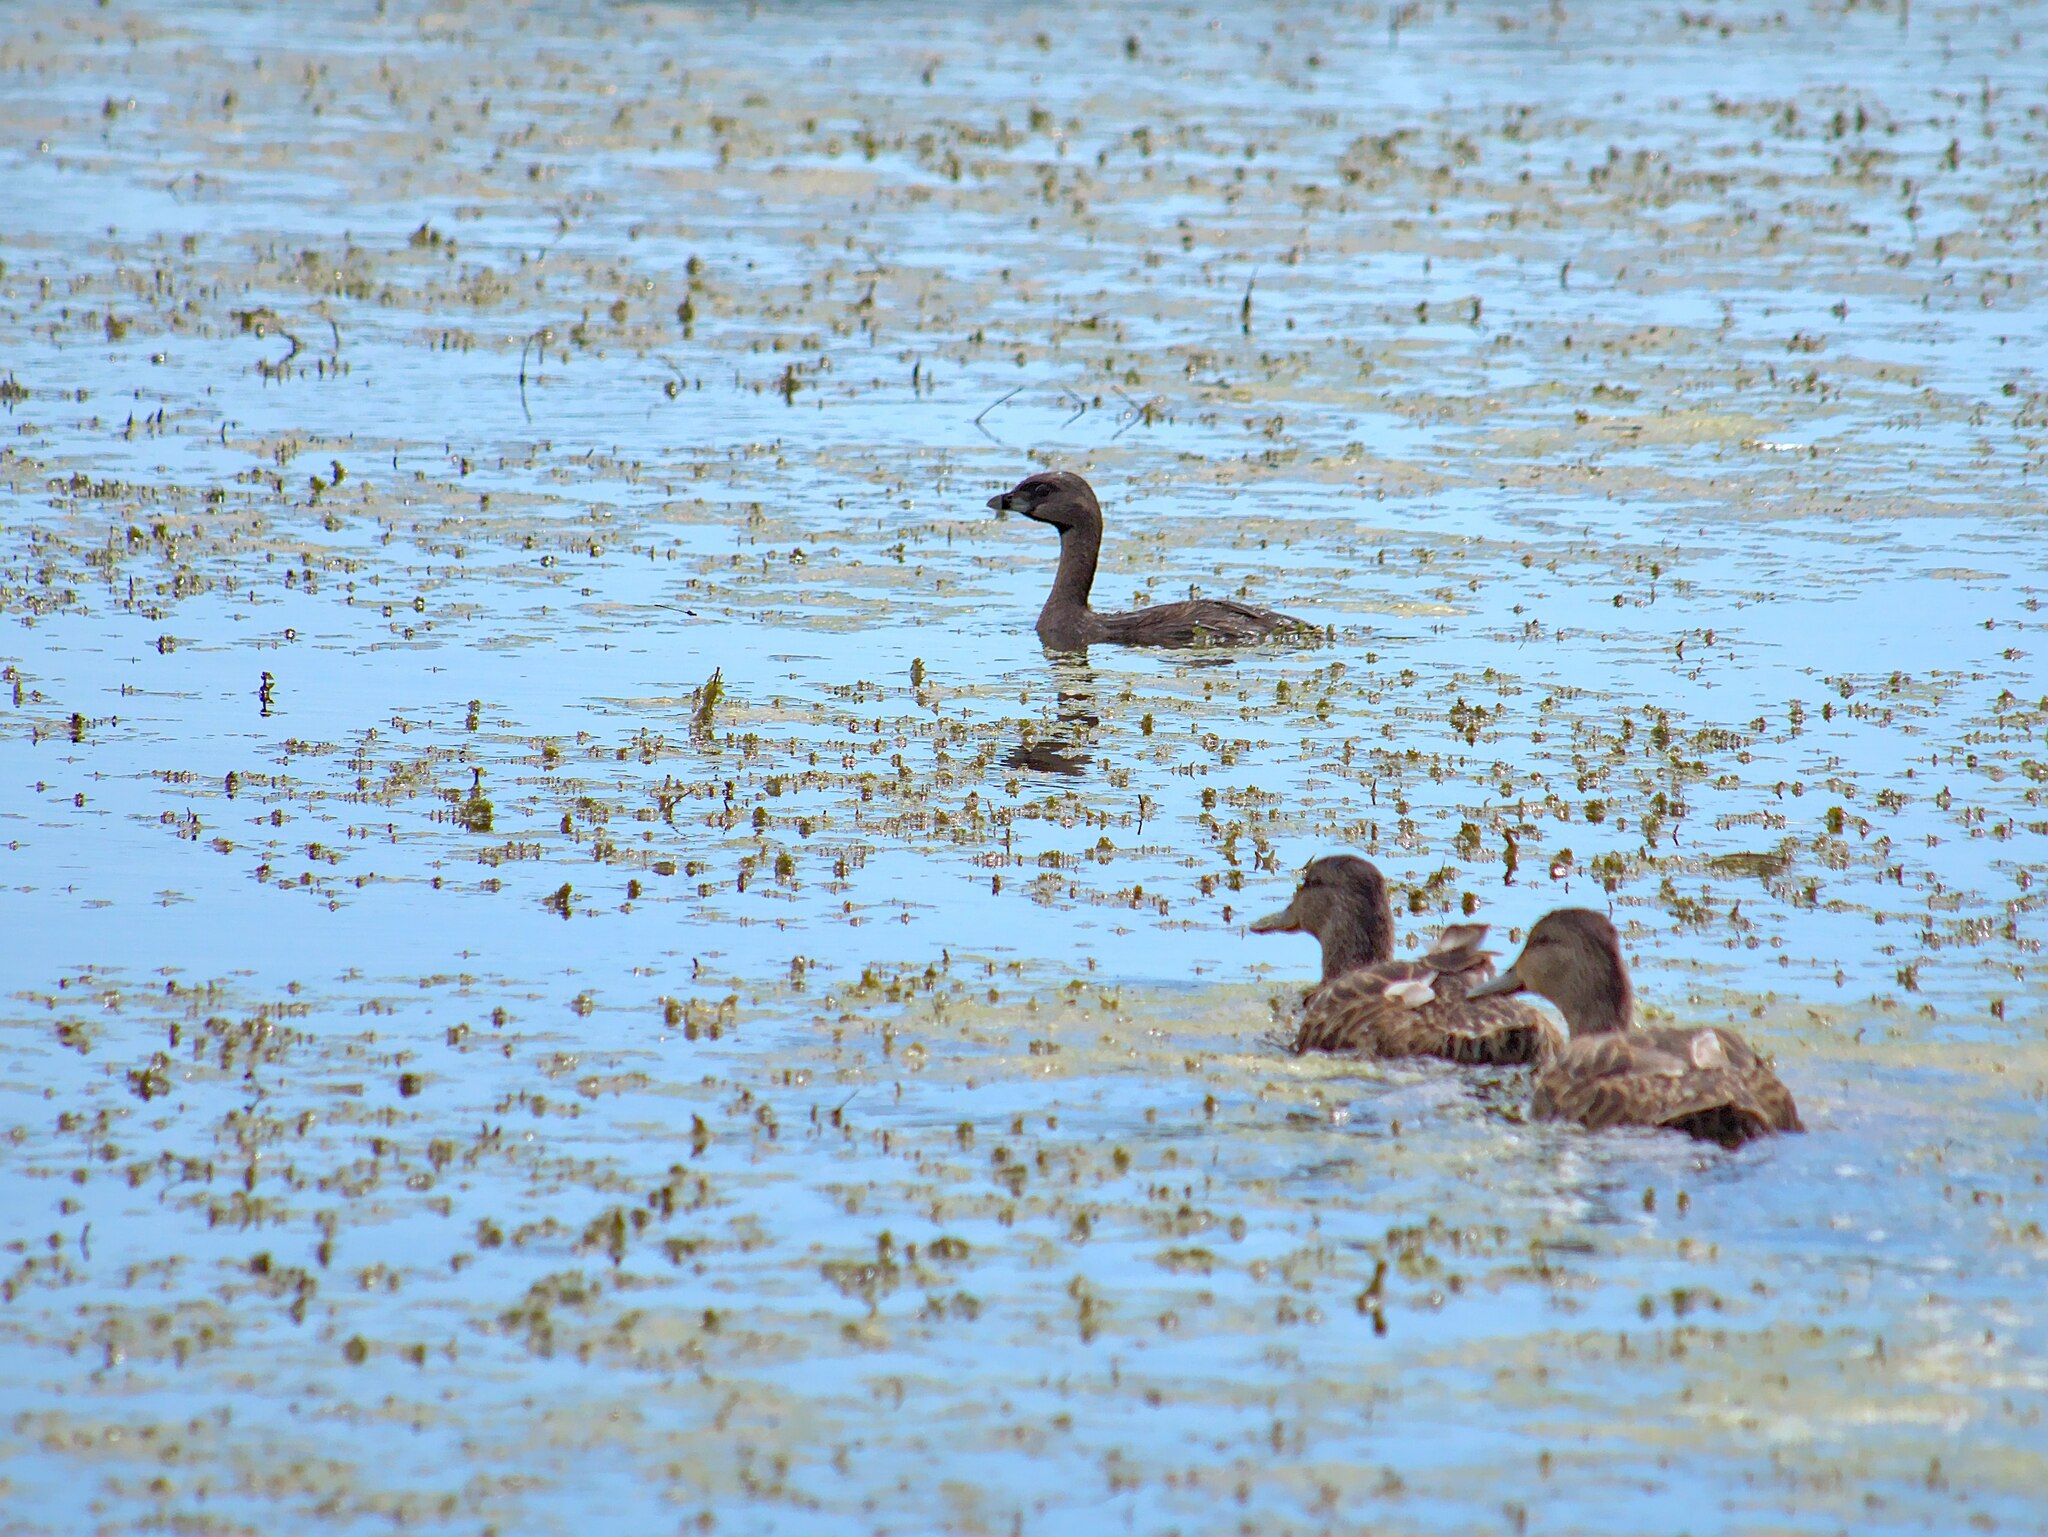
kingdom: Animalia
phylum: Chordata
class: Aves
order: Podicipediformes
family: Podicipedidae
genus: Podilymbus
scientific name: Podilymbus podiceps
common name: Pied-billed grebe
